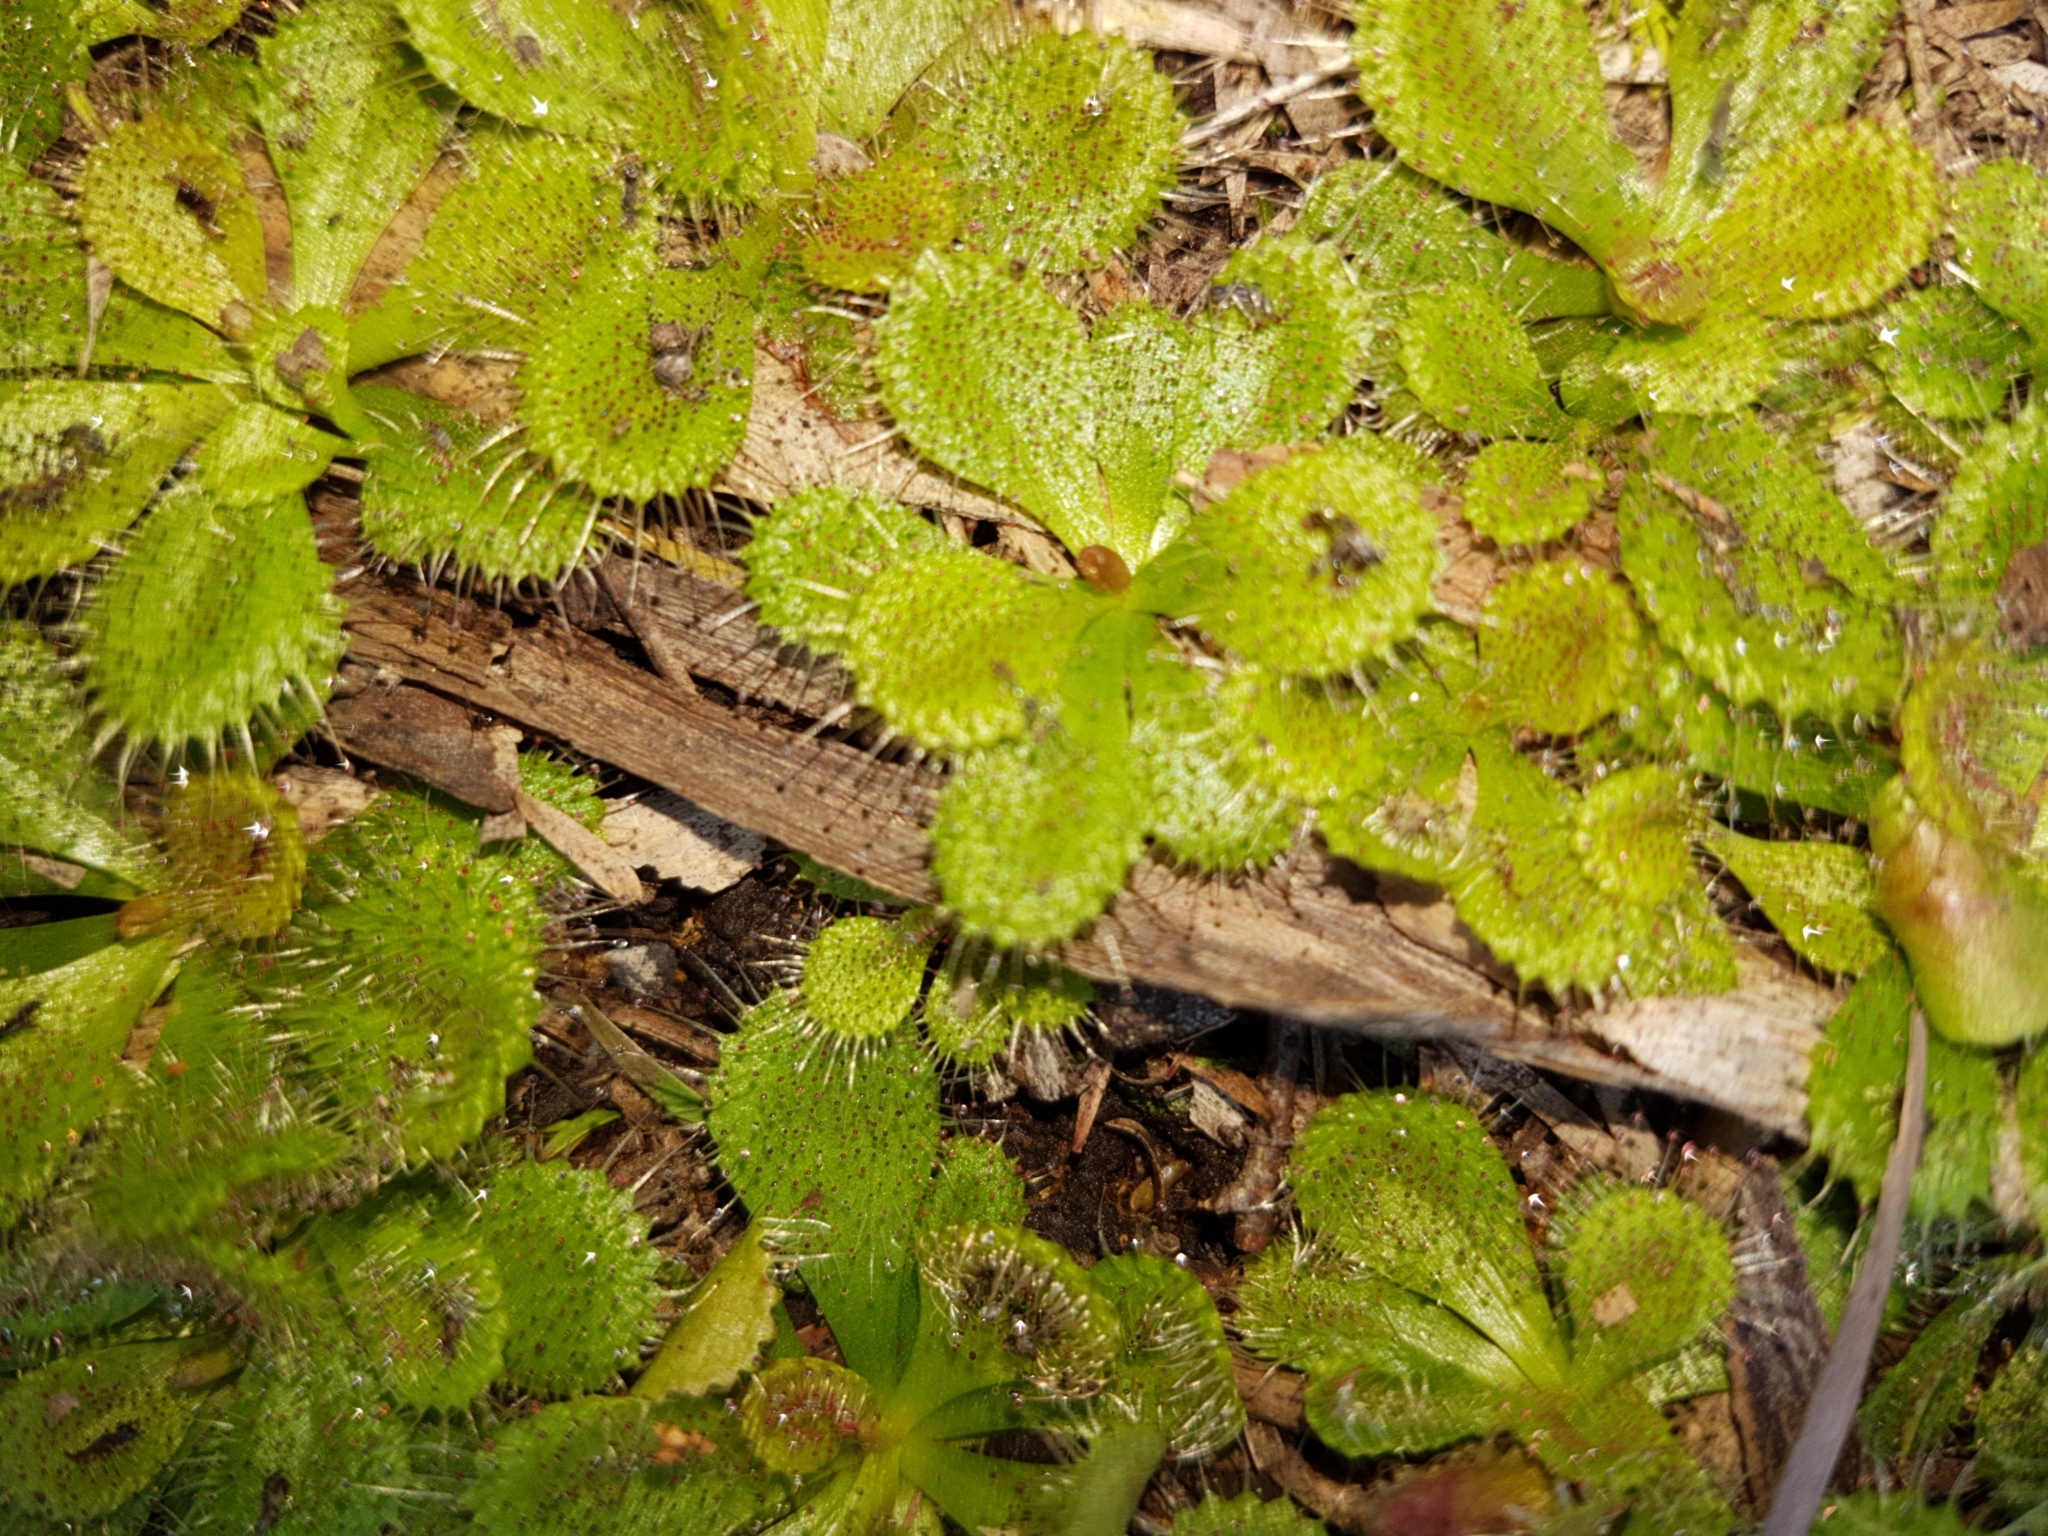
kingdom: Plantae
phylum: Tracheophyta
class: Magnoliopsida
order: Caryophyllales
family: Droseraceae
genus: Drosera
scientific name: Drosera aberrans
